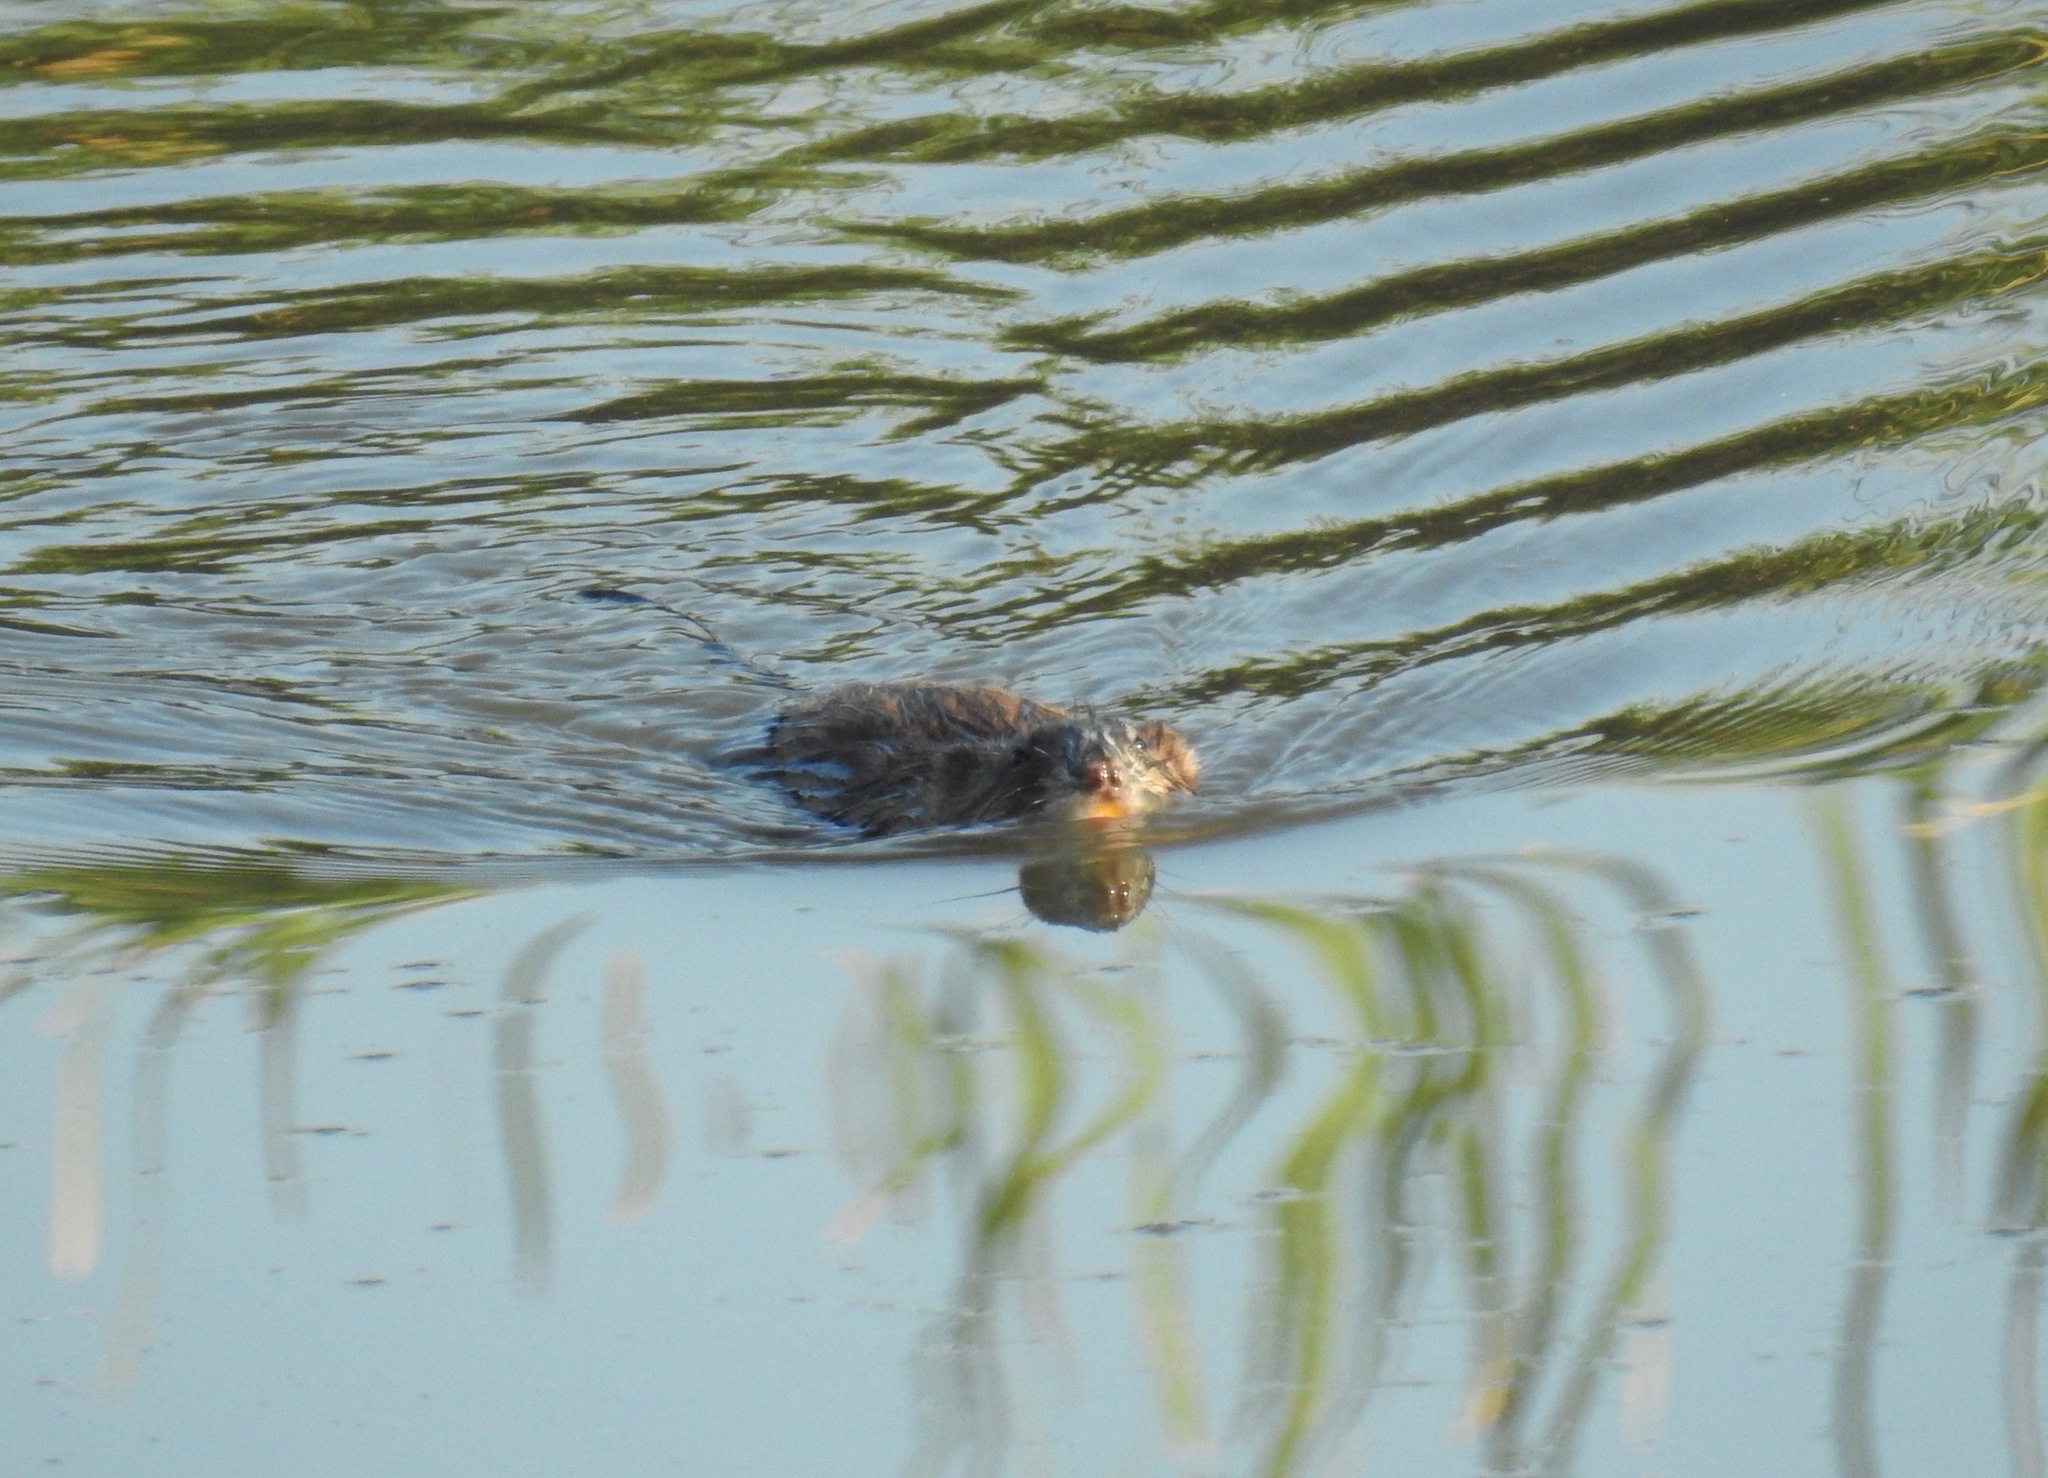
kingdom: Animalia
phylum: Chordata
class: Mammalia
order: Rodentia
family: Cricetidae
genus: Ondatra
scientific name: Ondatra zibethicus
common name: Muskrat
